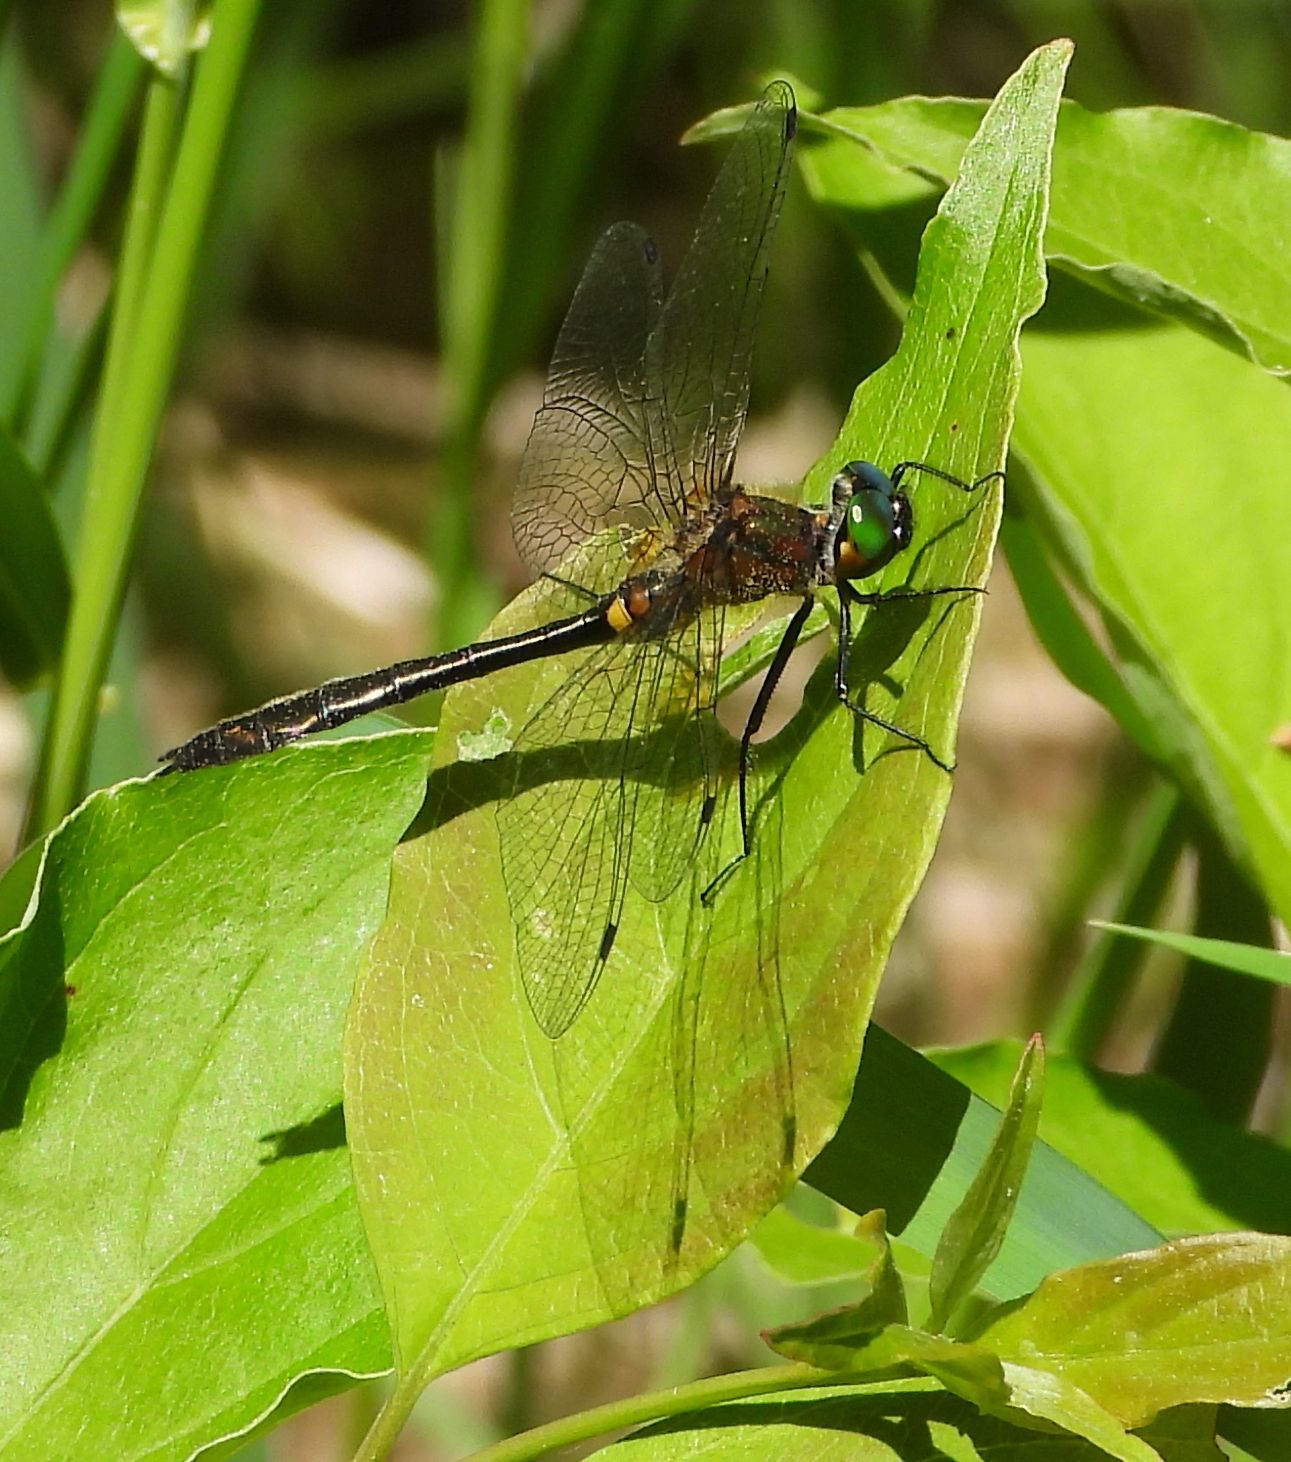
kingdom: Animalia
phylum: Arthropoda
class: Insecta
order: Odonata
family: Corduliidae
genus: Dorocordulia
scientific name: Dorocordulia libera
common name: Racket-tailed emerald
